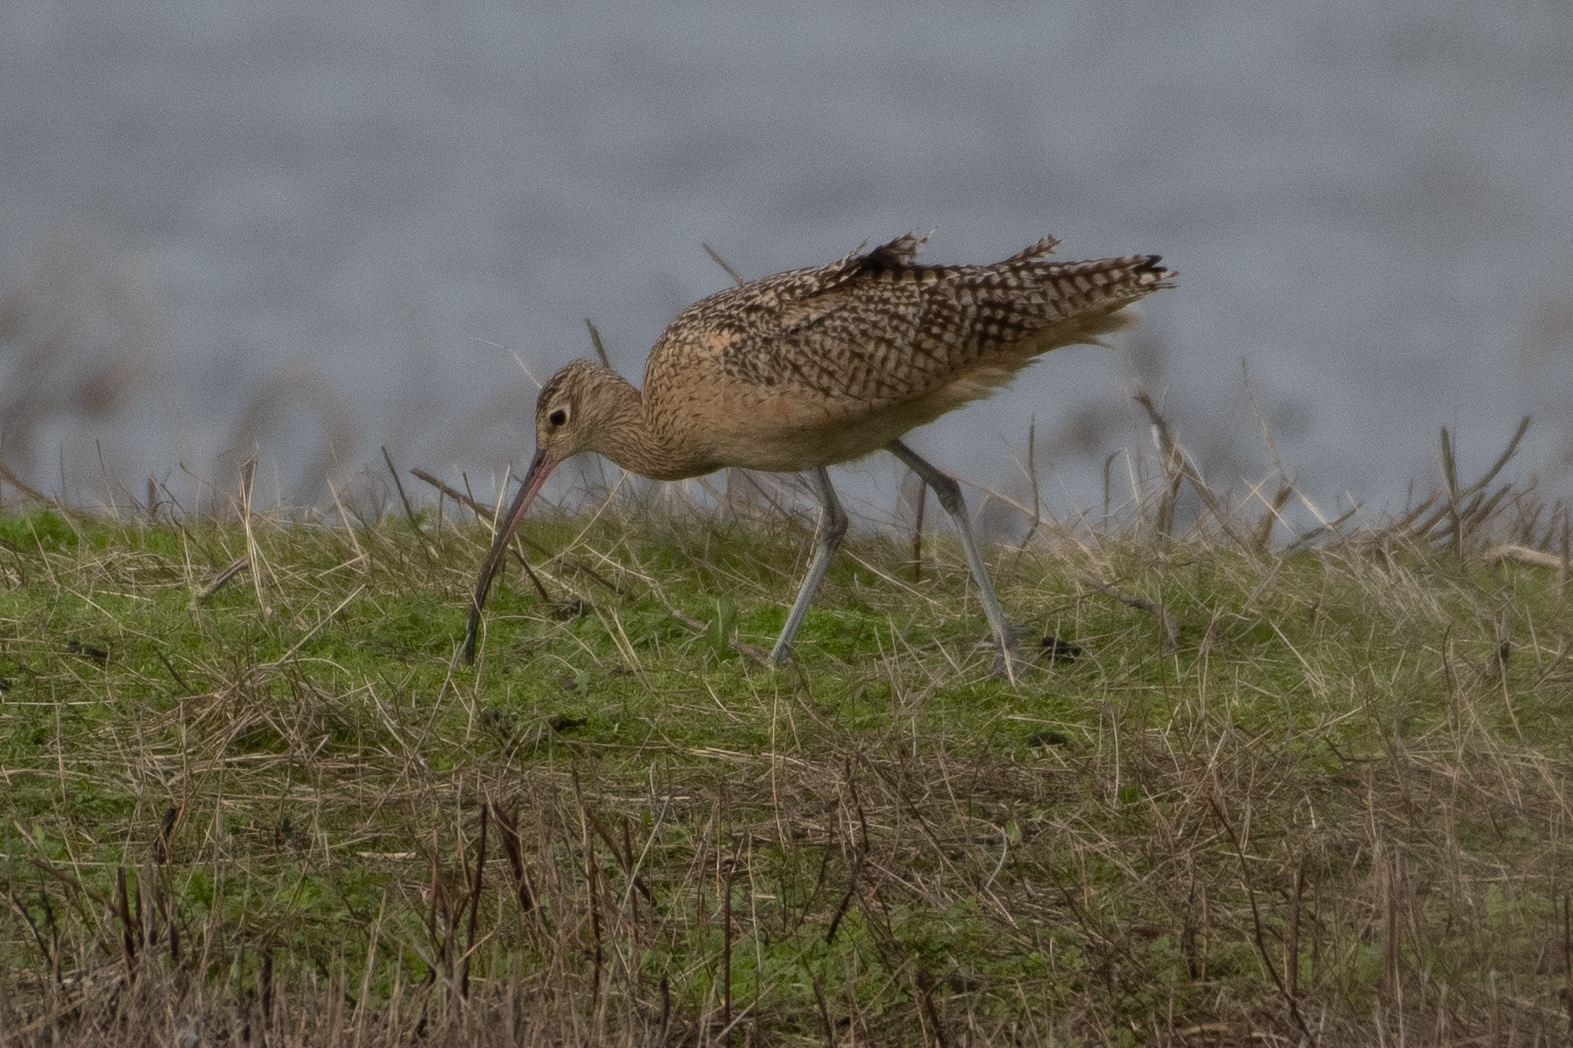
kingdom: Animalia
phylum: Chordata
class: Aves
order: Charadriiformes
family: Scolopacidae
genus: Numenius
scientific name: Numenius americanus
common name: Long-billed curlew
